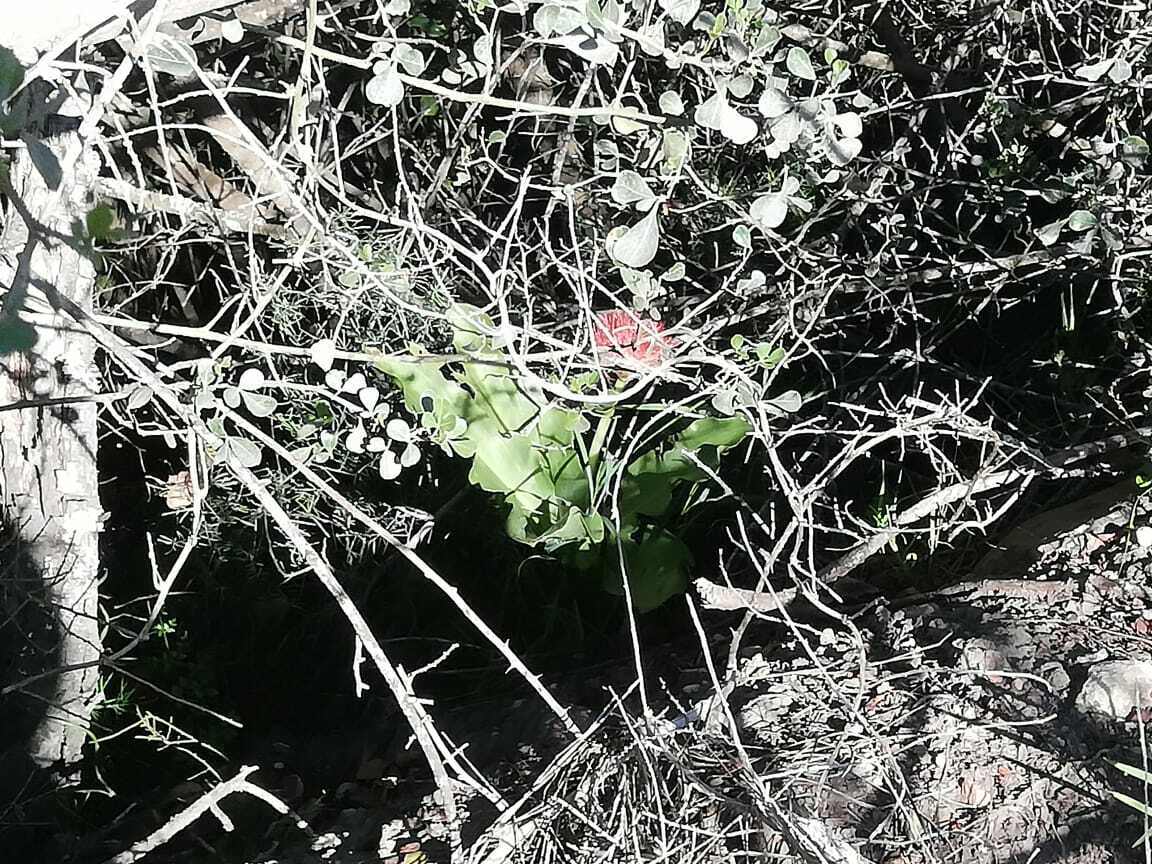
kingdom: Plantae
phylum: Tracheophyta
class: Liliopsida
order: Asparagales
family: Amaryllidaceae
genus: Scadoxus
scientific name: Scadoxus puniceus
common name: Royal-paintbrush
